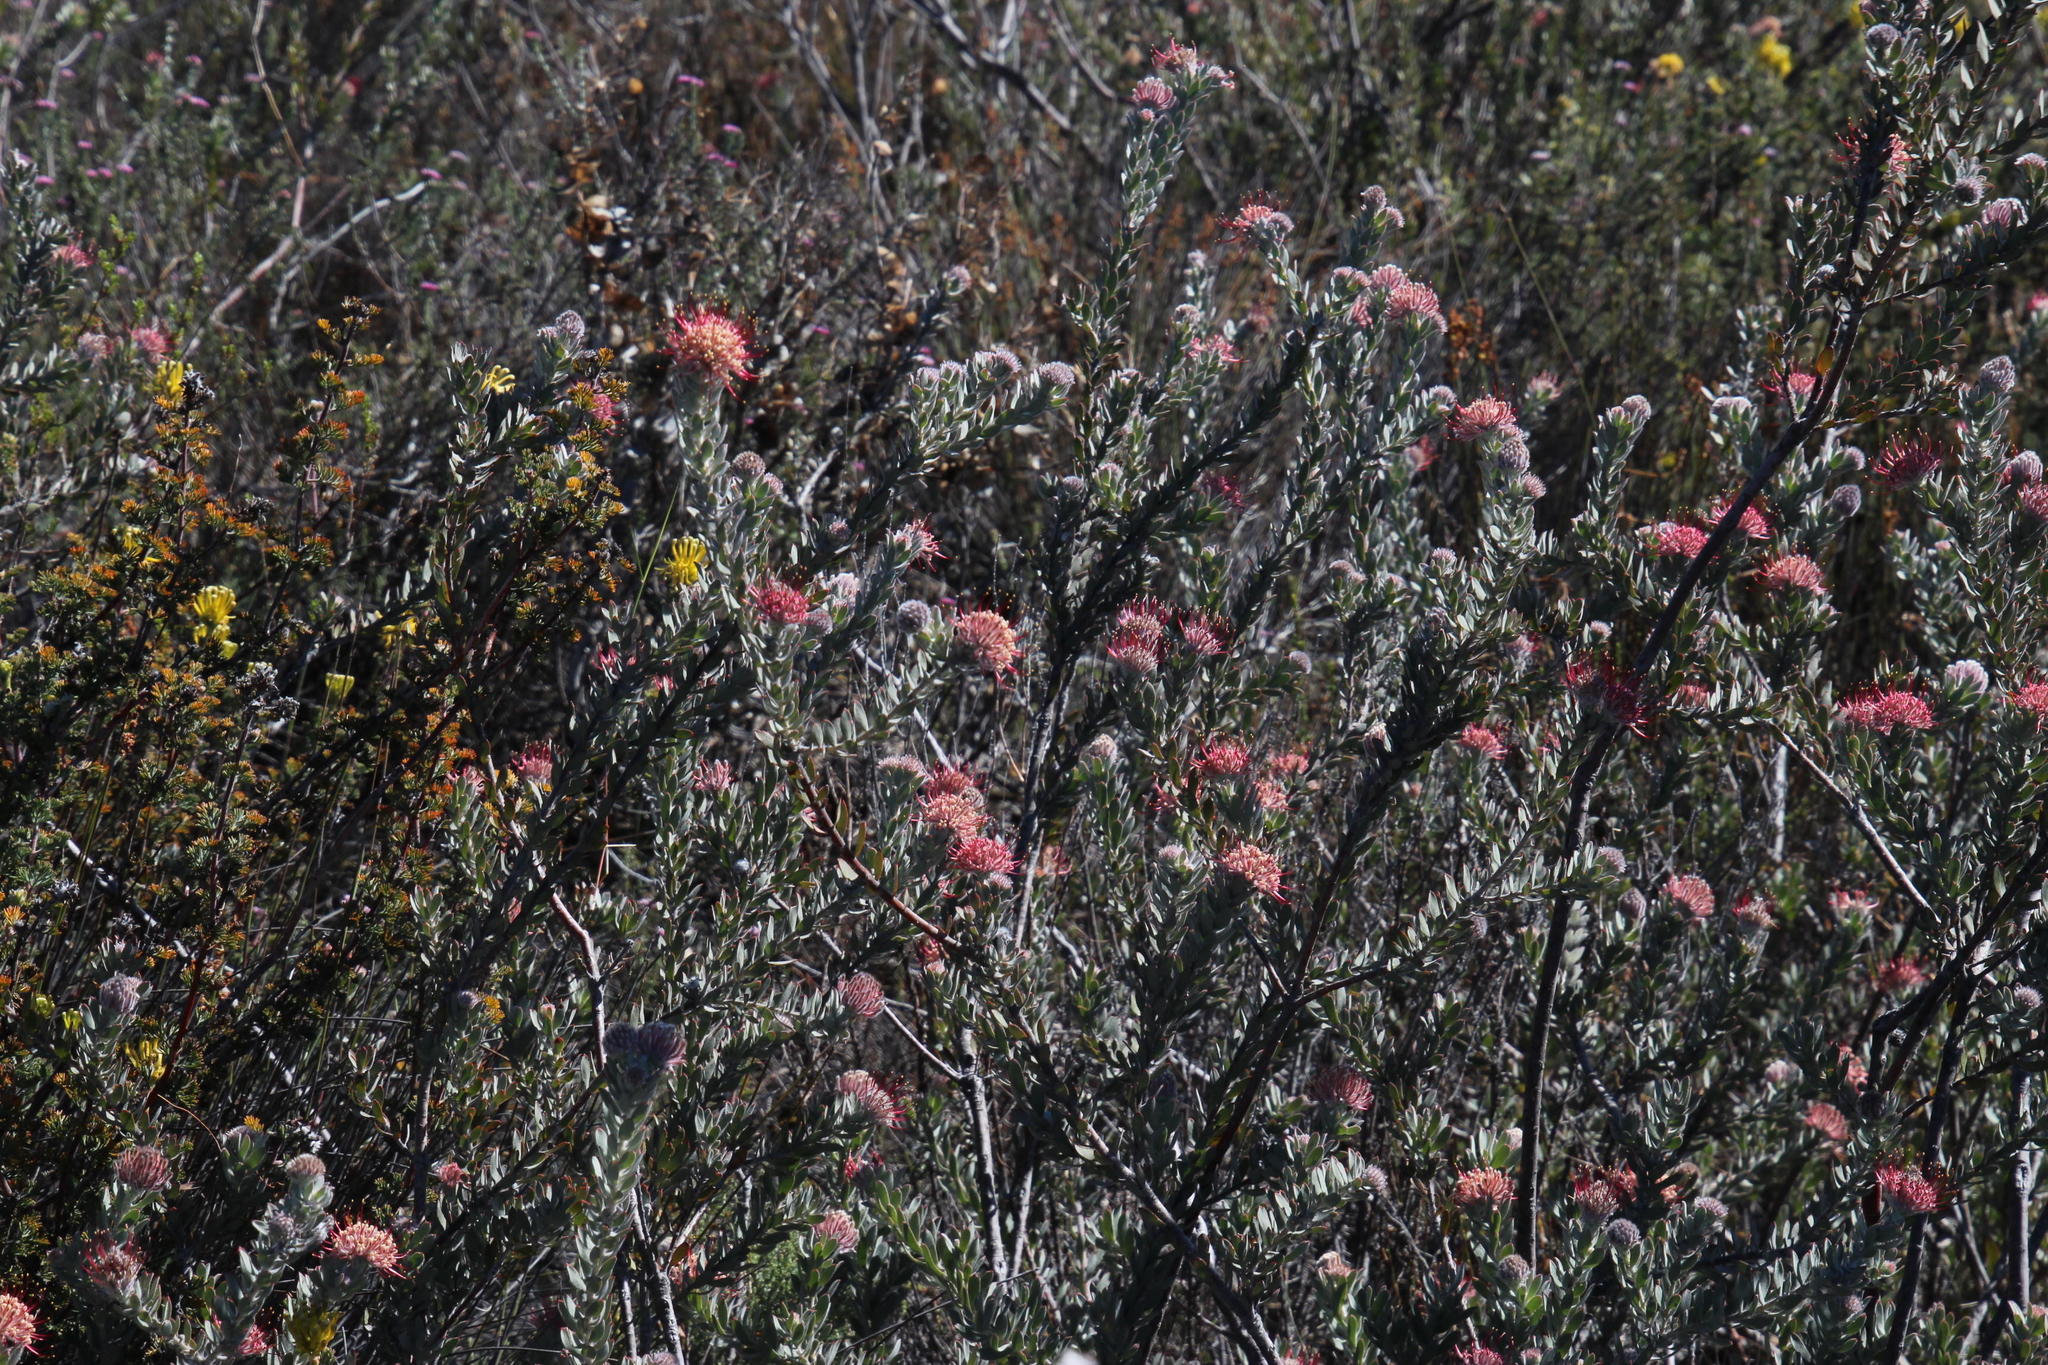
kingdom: Plantae
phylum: Tracheophyta
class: Magnoliopsida
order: Proteales
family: Proteaceae
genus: Leucospermum
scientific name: Leucospermum calligerum
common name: Arid pincushion
